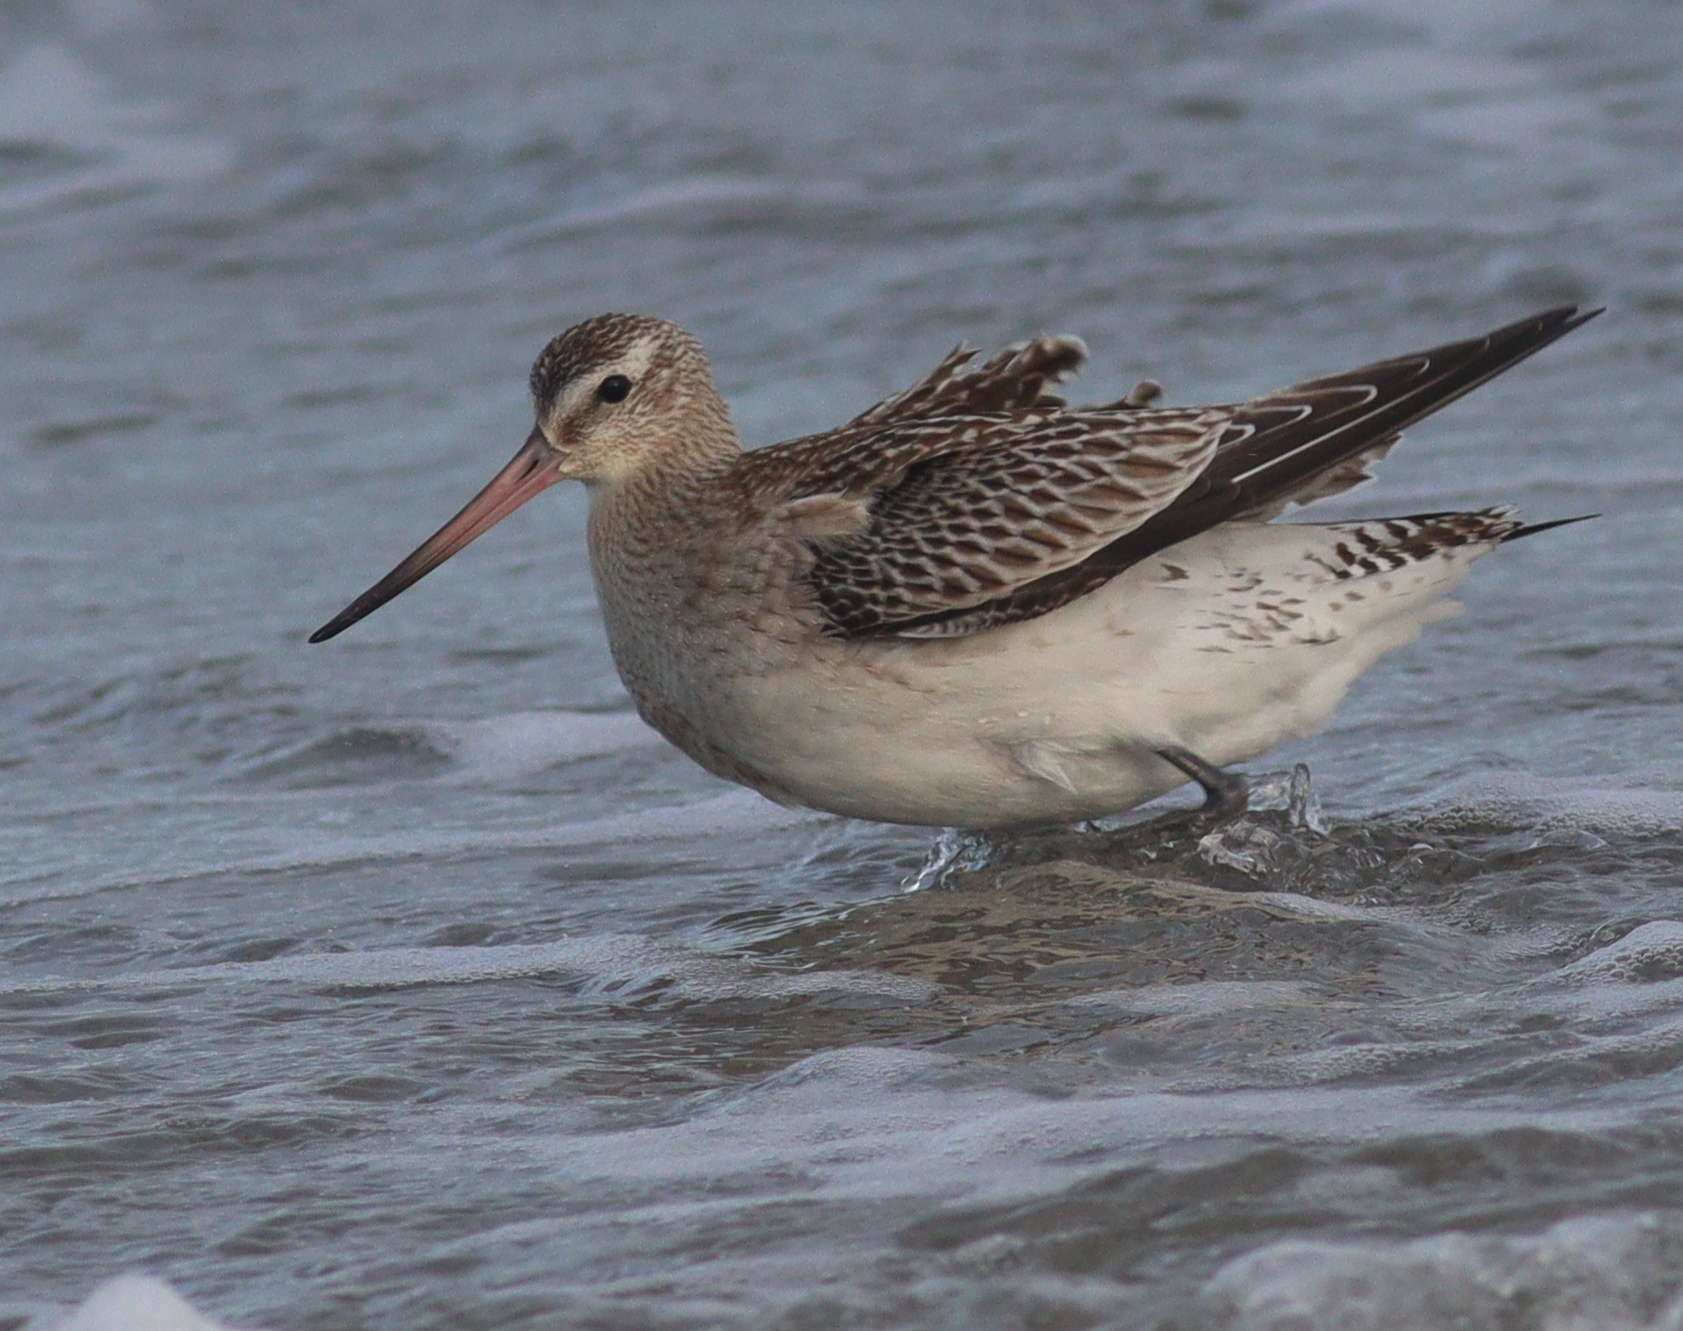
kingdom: Animalia
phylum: Chordata
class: Aves
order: Charadriiformes
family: Scolopacidae
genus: Limosa
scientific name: Limosa lapponica
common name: Bar-tailed godwit
